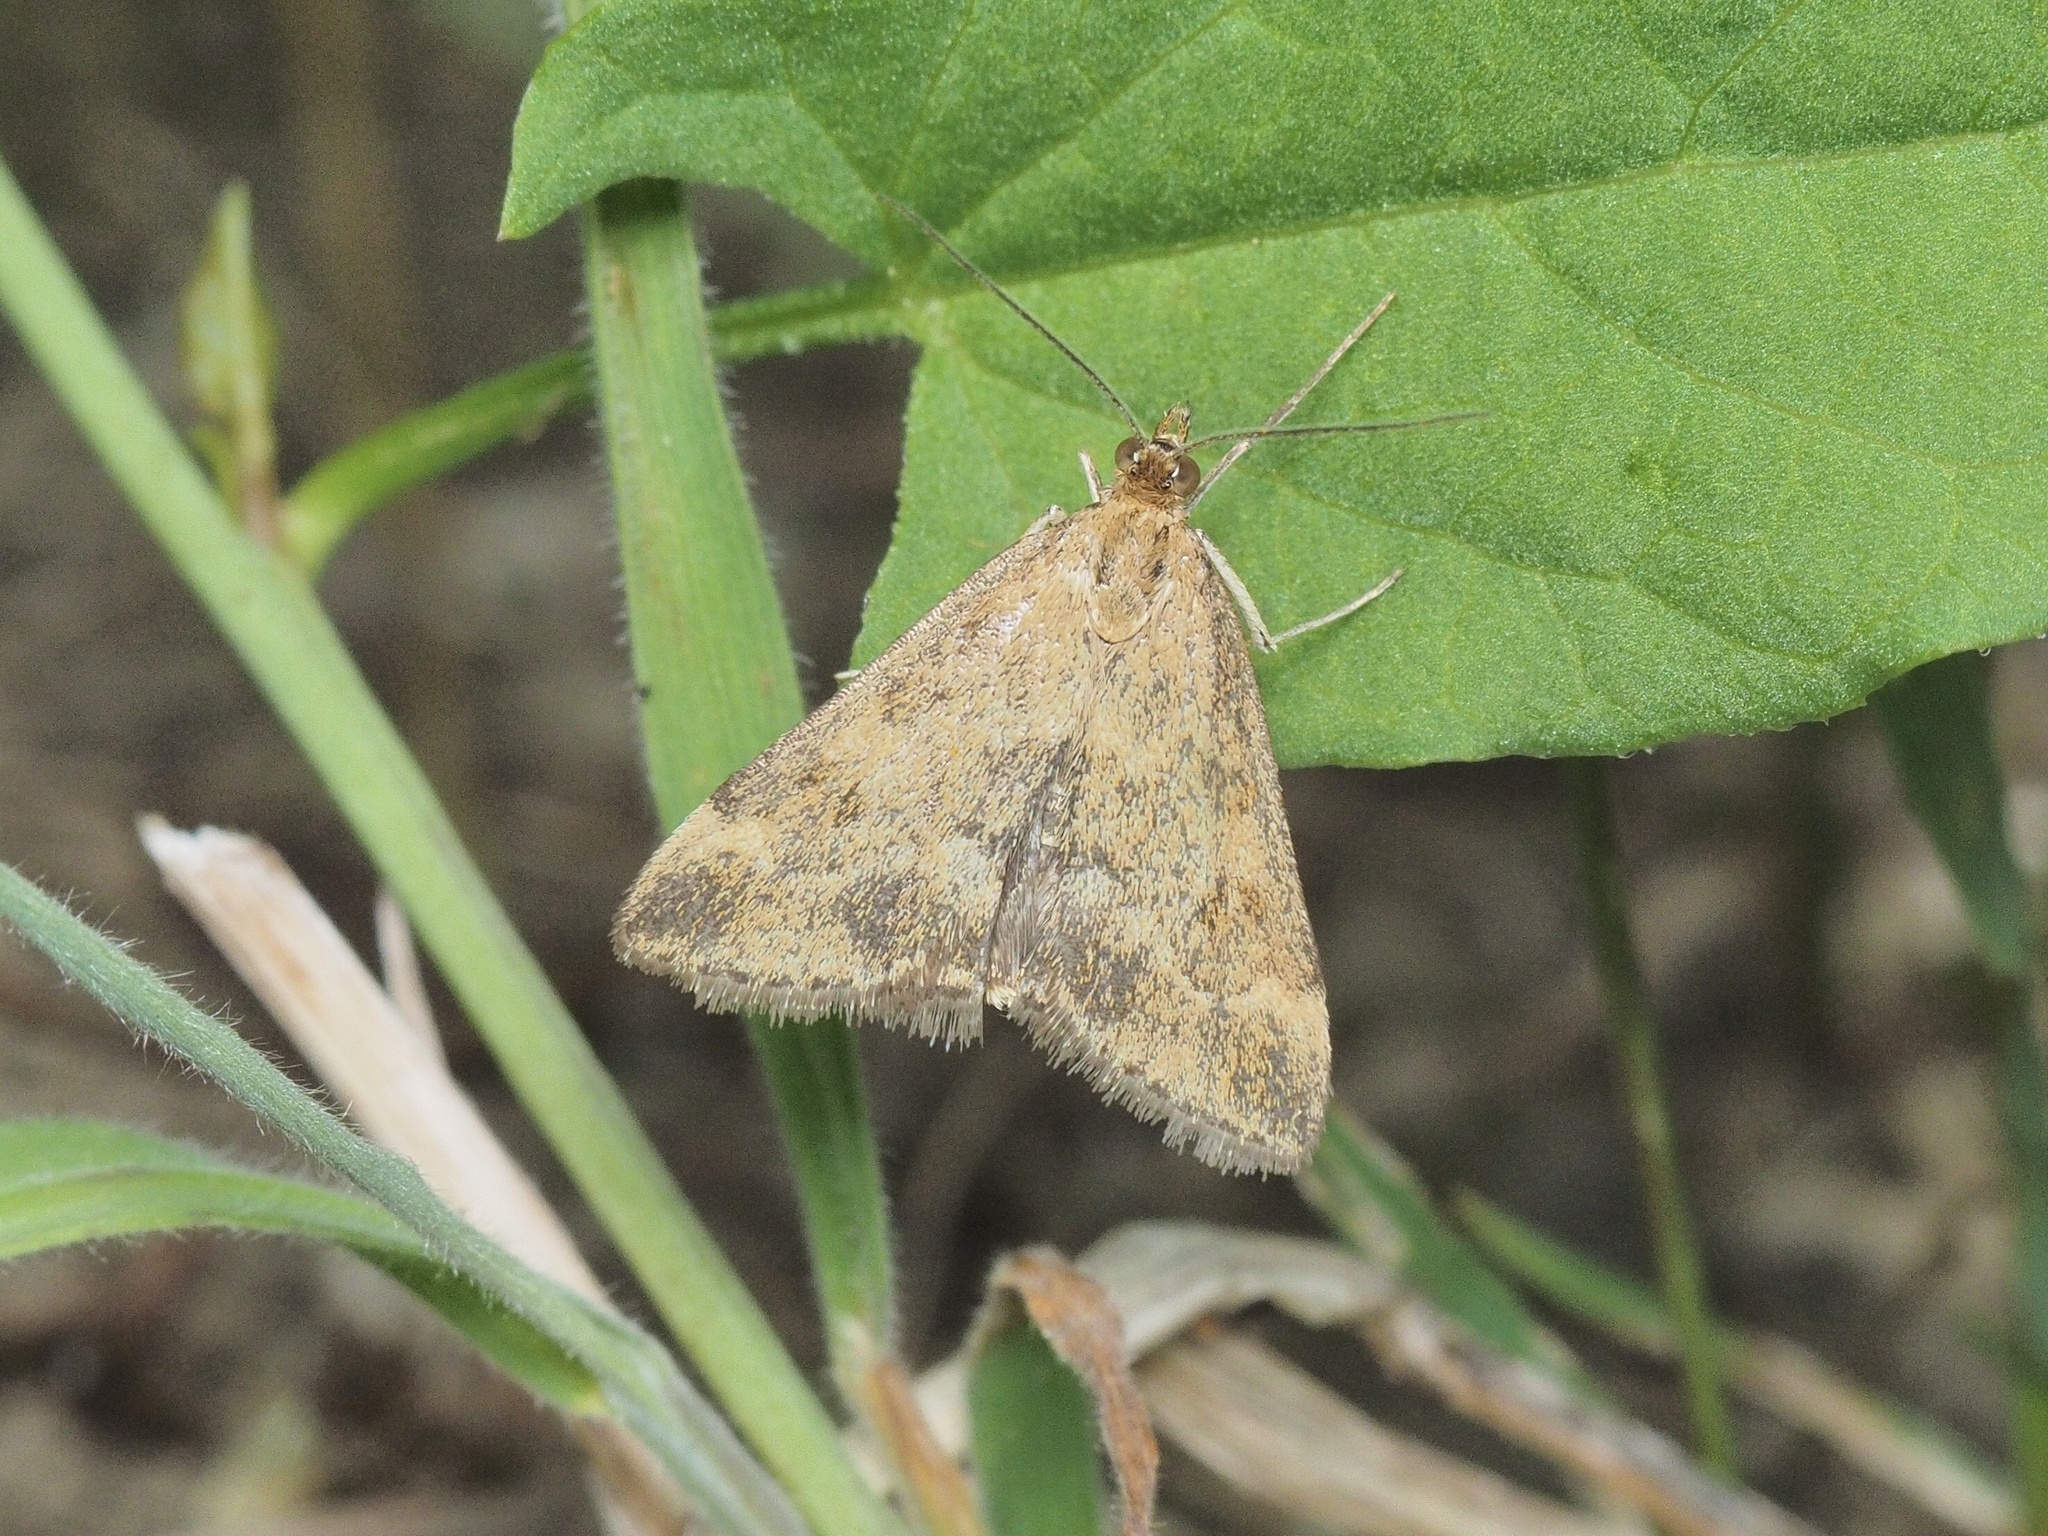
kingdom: Animalia
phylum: Arthropoda
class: Insecta
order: Lepidoptera
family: Crambidae
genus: Pyrausta
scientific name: Pyrausta despicata
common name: Straw-barred pearl
